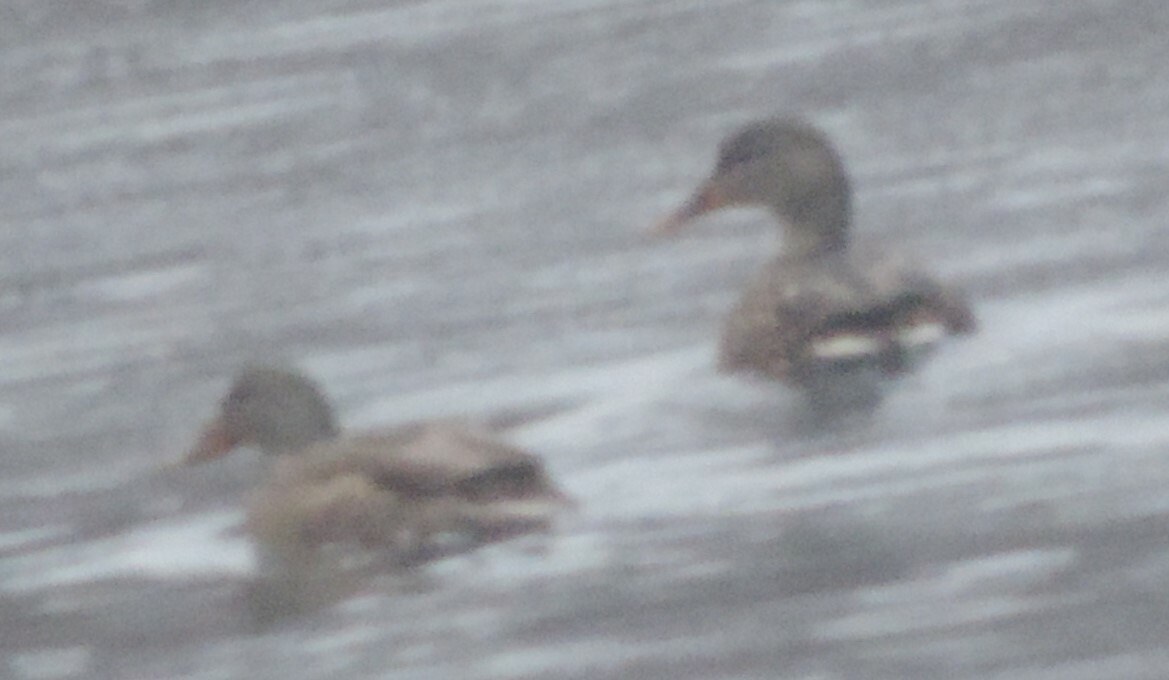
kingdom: Animalia
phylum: Chordata
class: Aves
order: Anseriformes
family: Anatidae
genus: Anas
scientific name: Anas platyrhynchos
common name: Mallard
